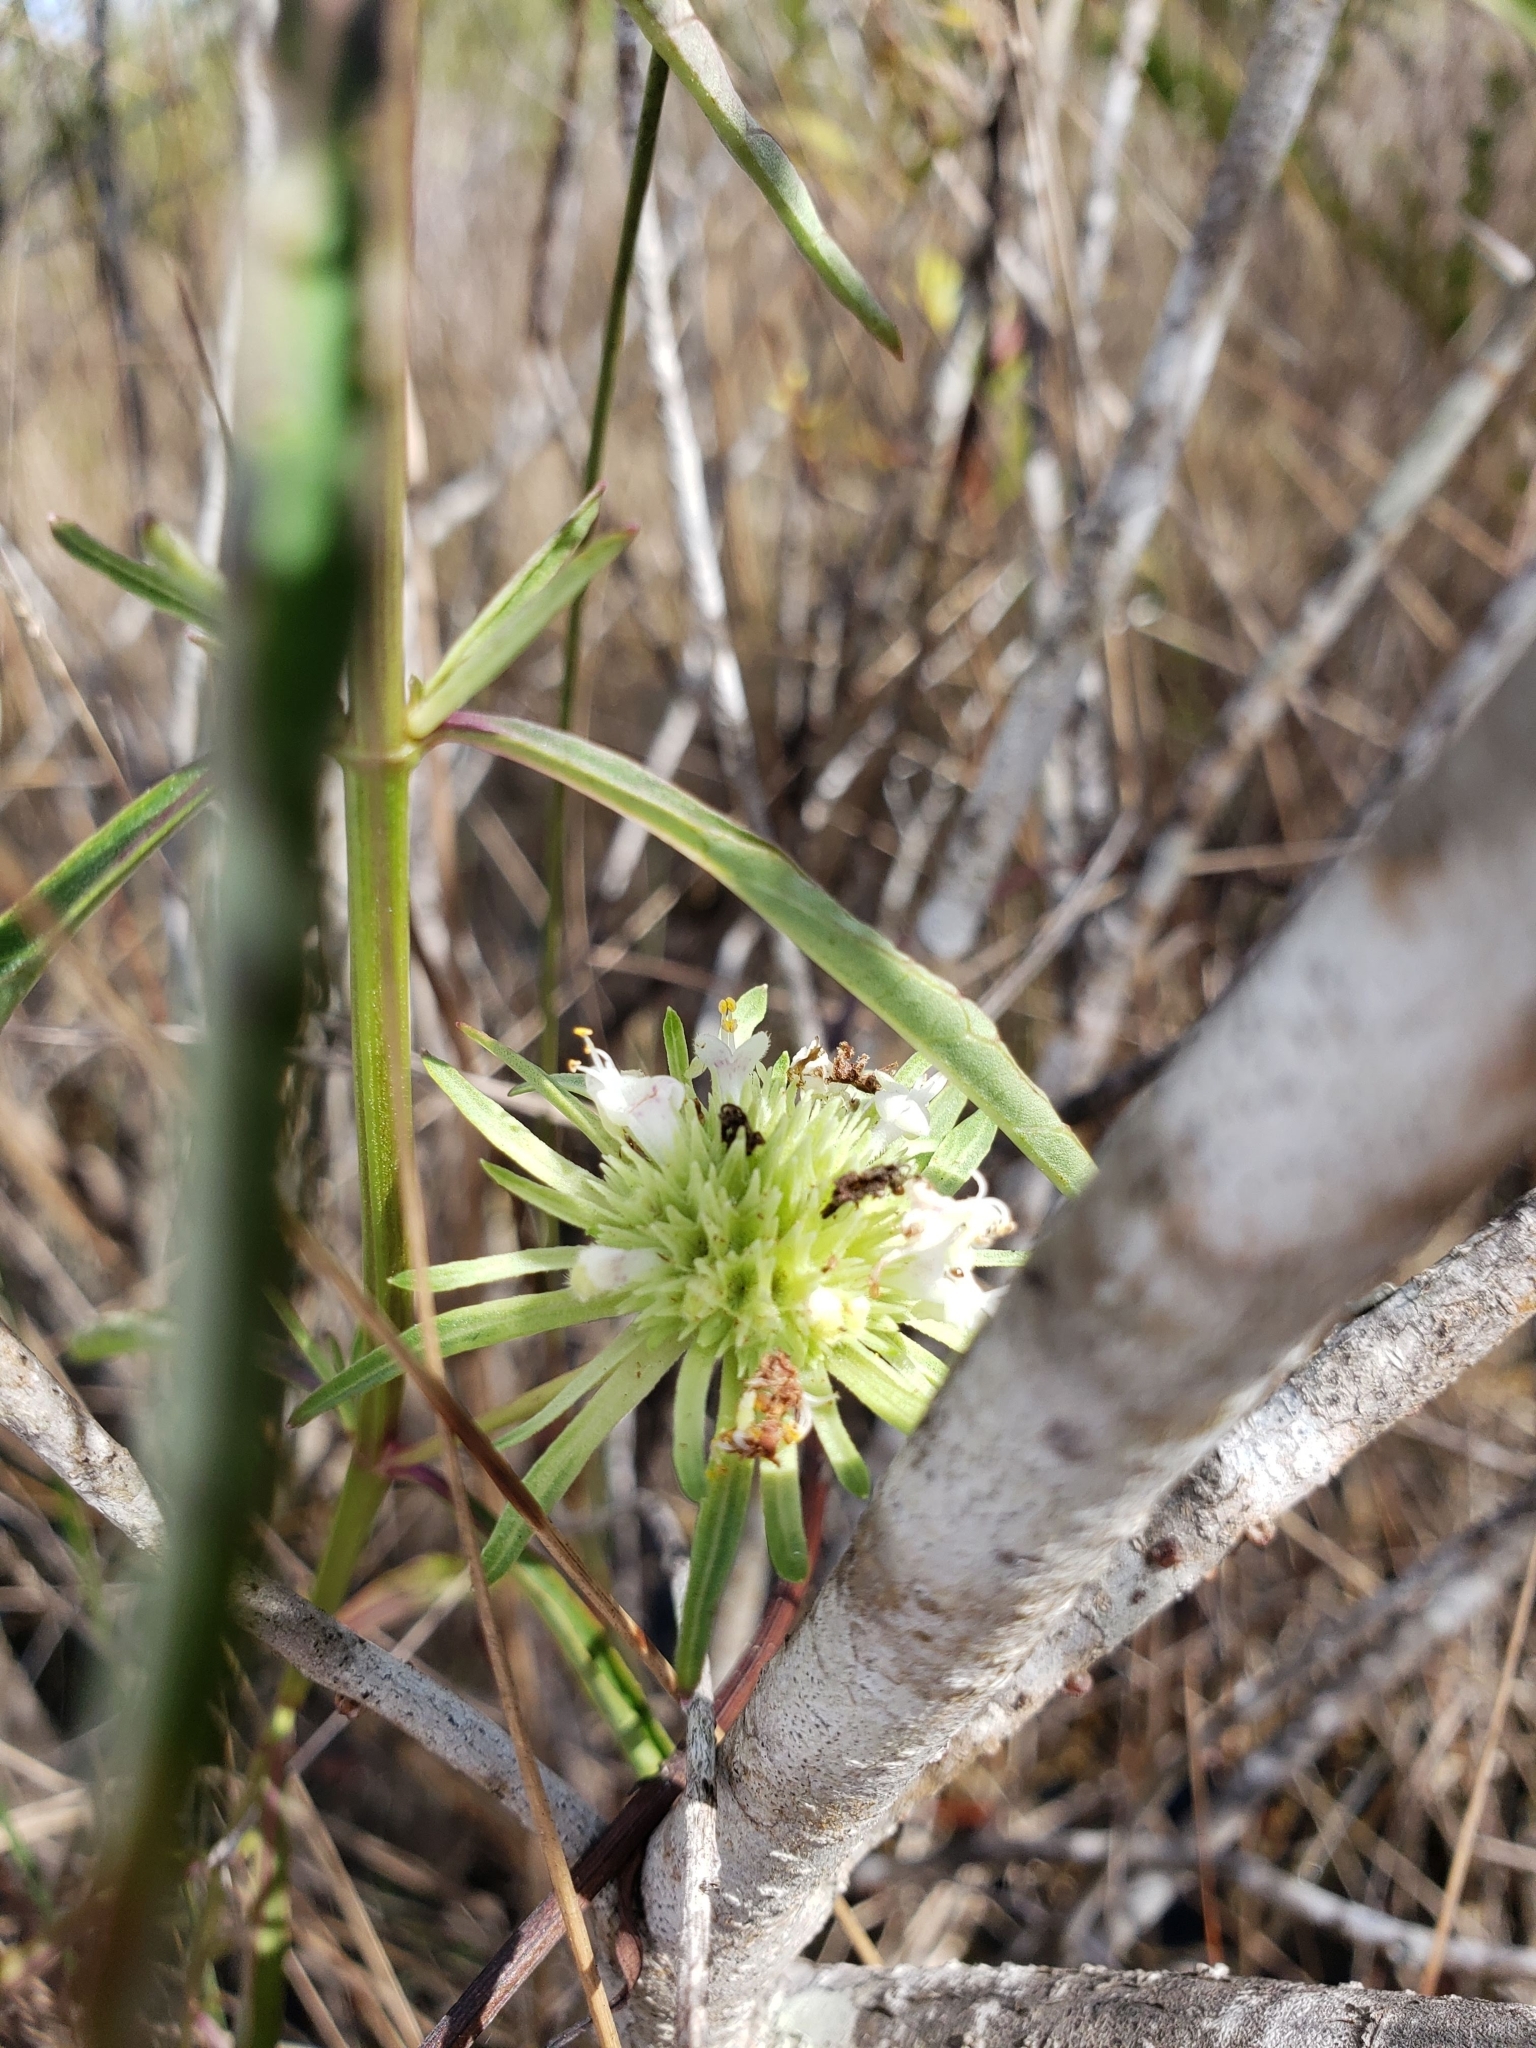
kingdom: Plantae
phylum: Tracheophyta
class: Magnoliopsida
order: Lamiales
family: Lamiaceae
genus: Hyptis
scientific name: Hyptis alata
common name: Cluster bush-mint
